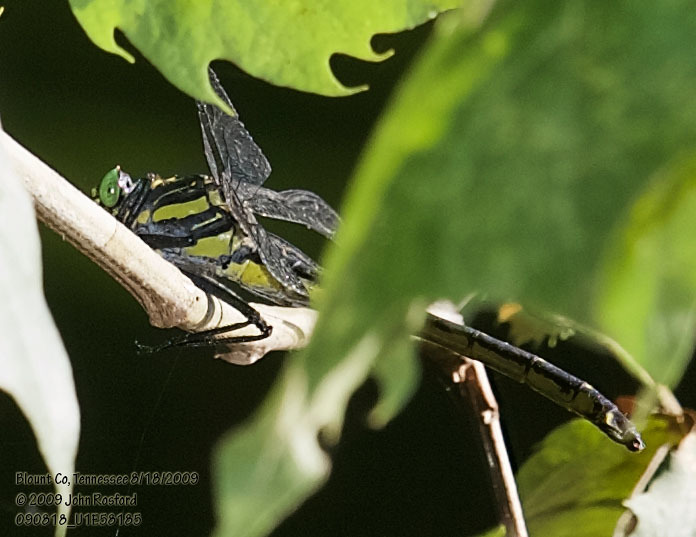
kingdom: Animalia
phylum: Arthropoda
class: Insecta
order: Odonata
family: Gomphidae
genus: Hagenius
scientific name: Hagenius brevistylus
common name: Dragonhunter
